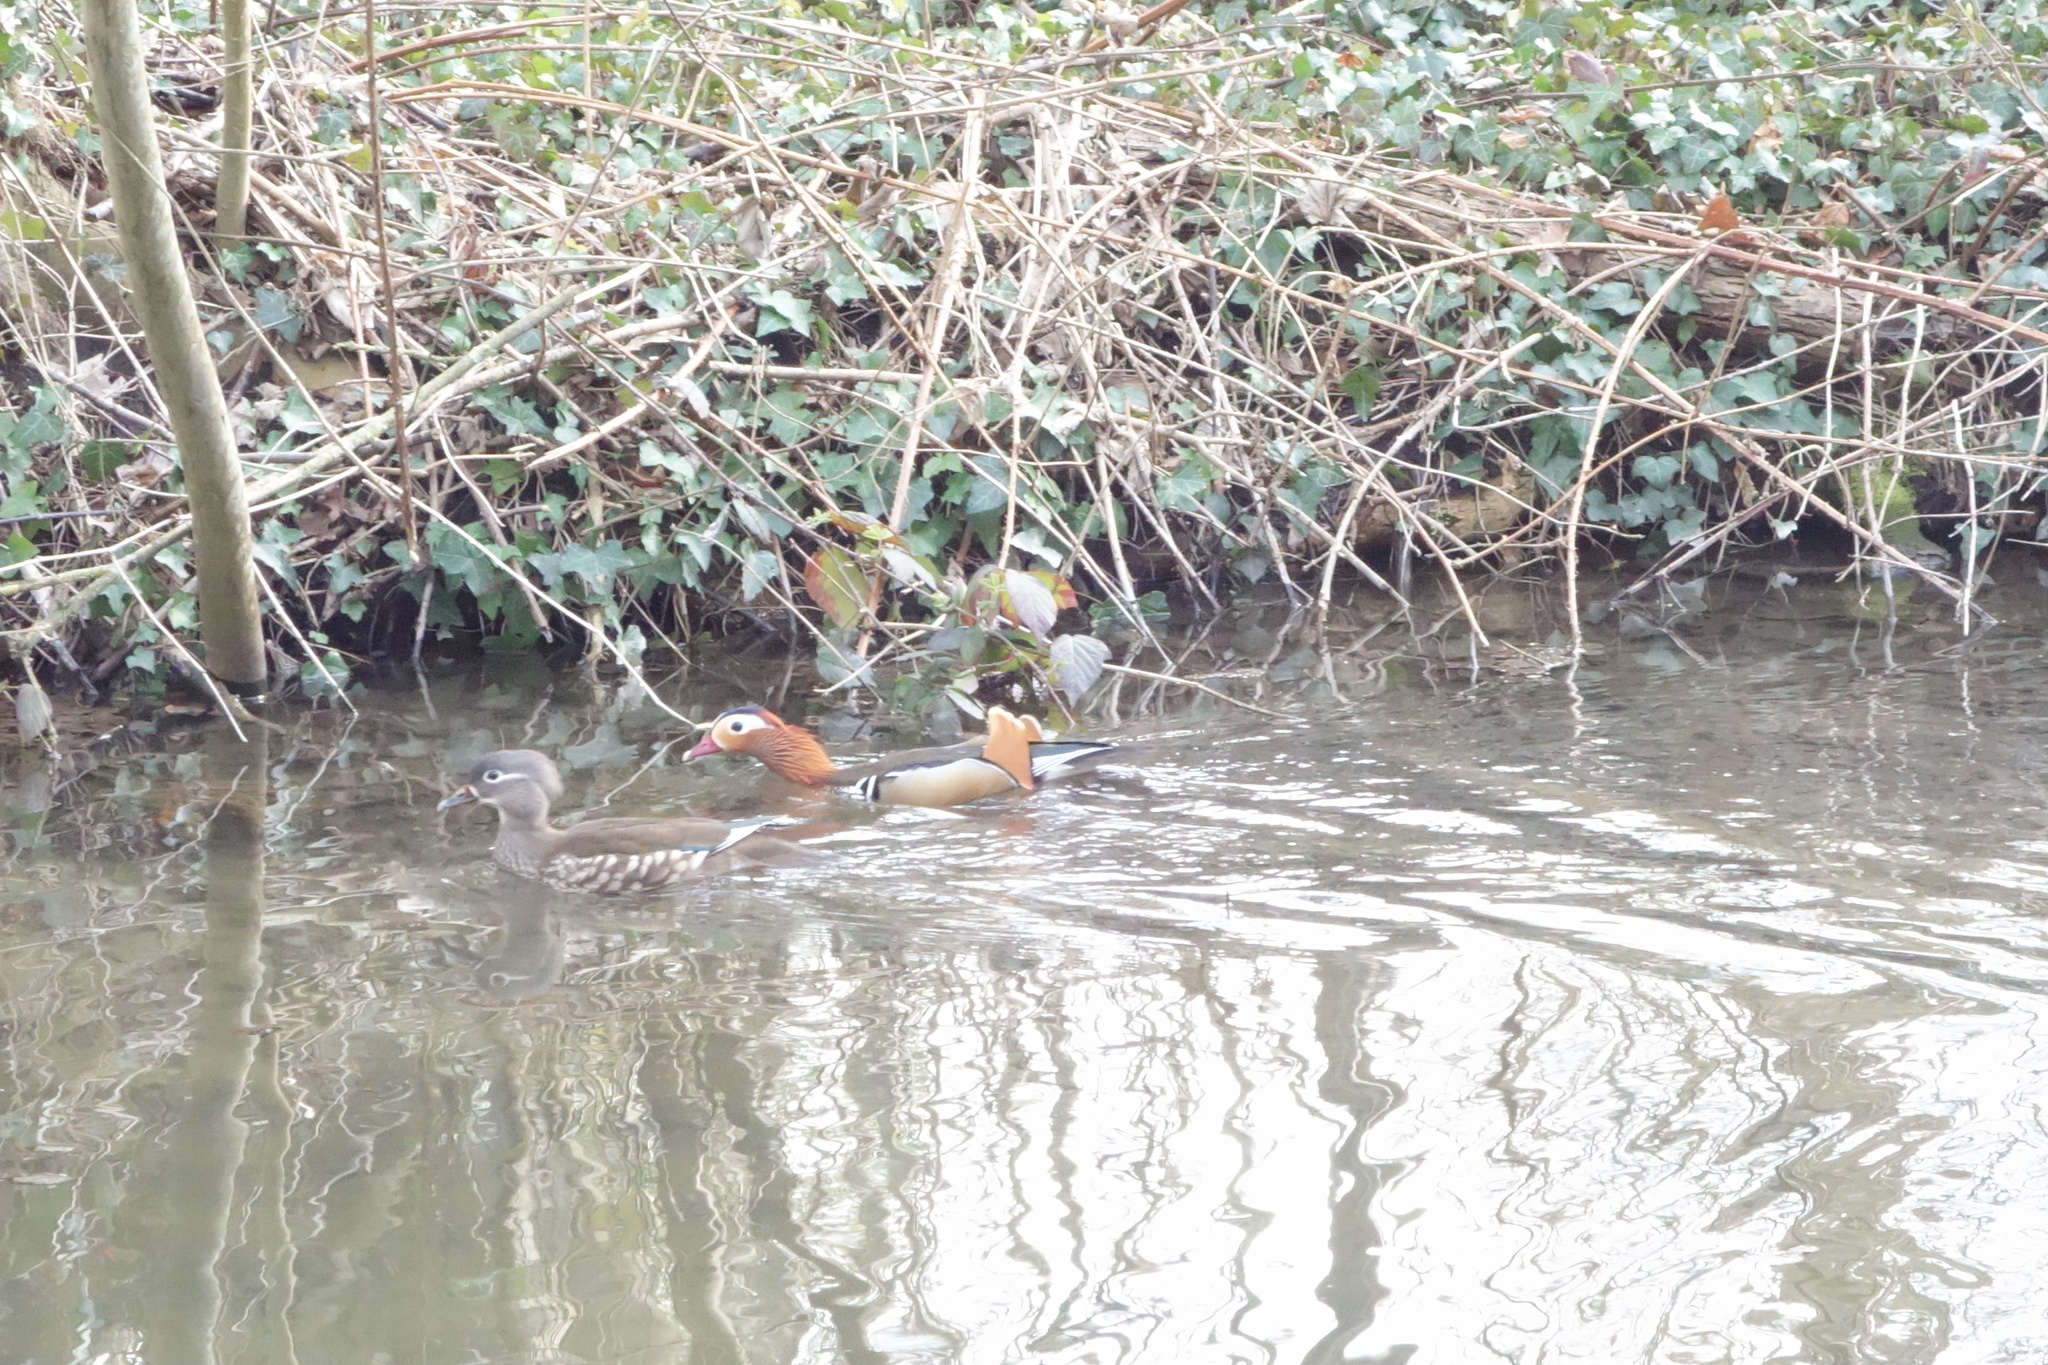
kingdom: Animalia
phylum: Chordata
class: Aves
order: Anseriformes
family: Anatidae
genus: Aix
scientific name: Aix galericulata
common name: Mandarin duck
